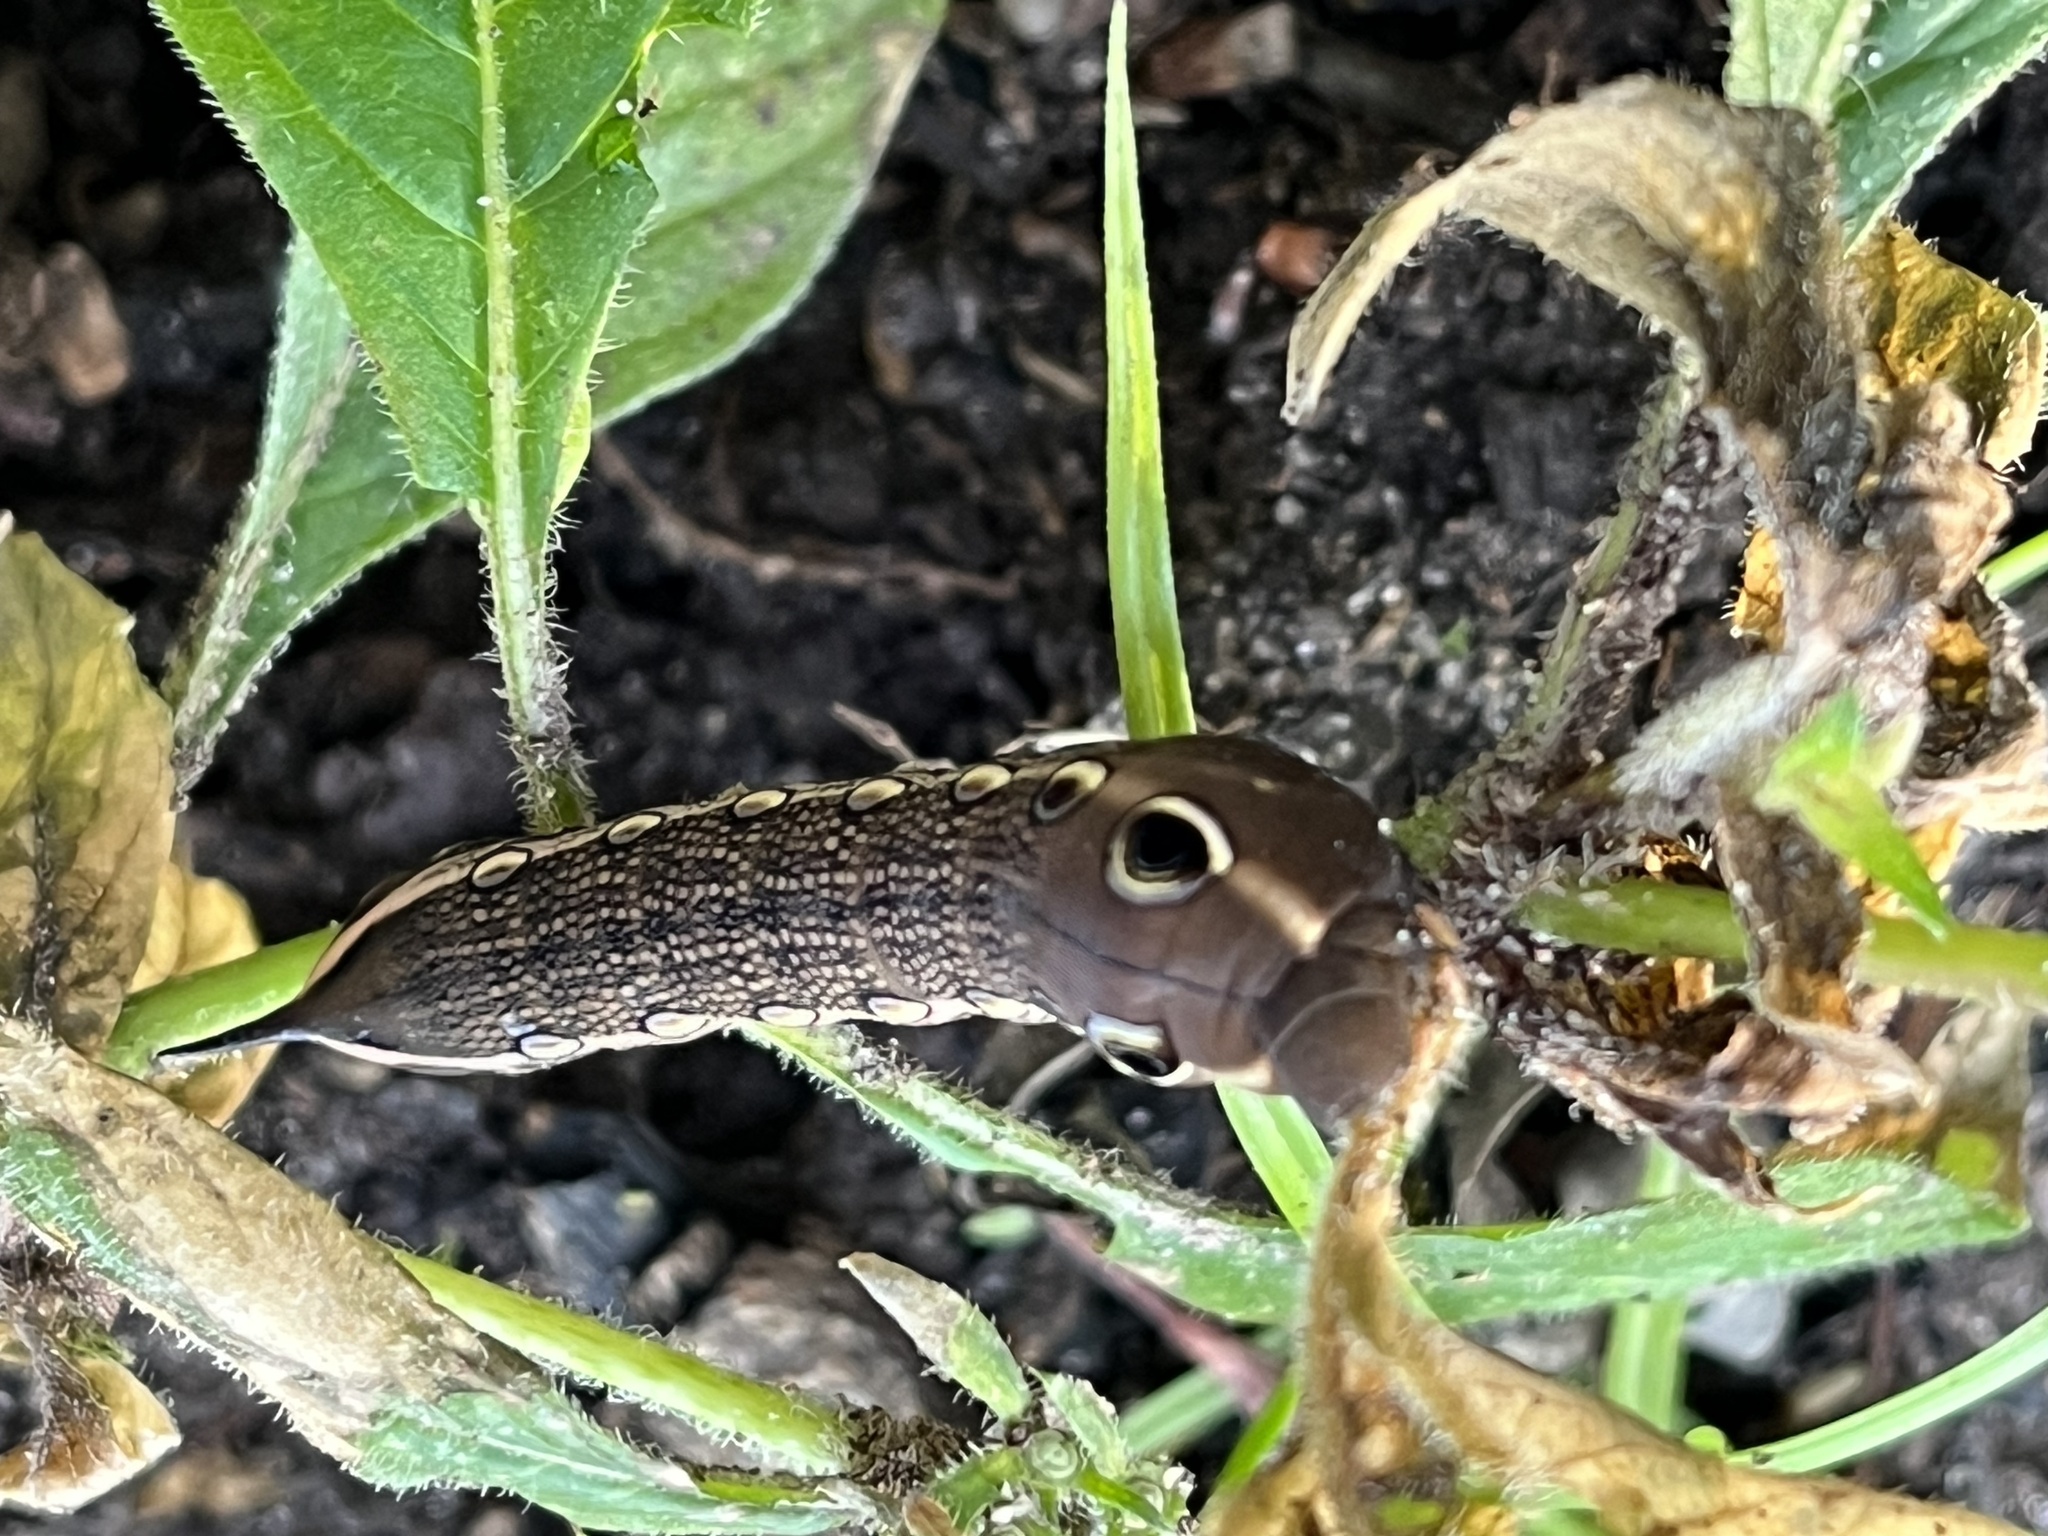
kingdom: Animalia
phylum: Arthropoda
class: Insecta
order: Lepidoptera
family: Sphingidae
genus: Xylophanes
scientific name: Xylophanes tersa
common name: Tersa sphinx
